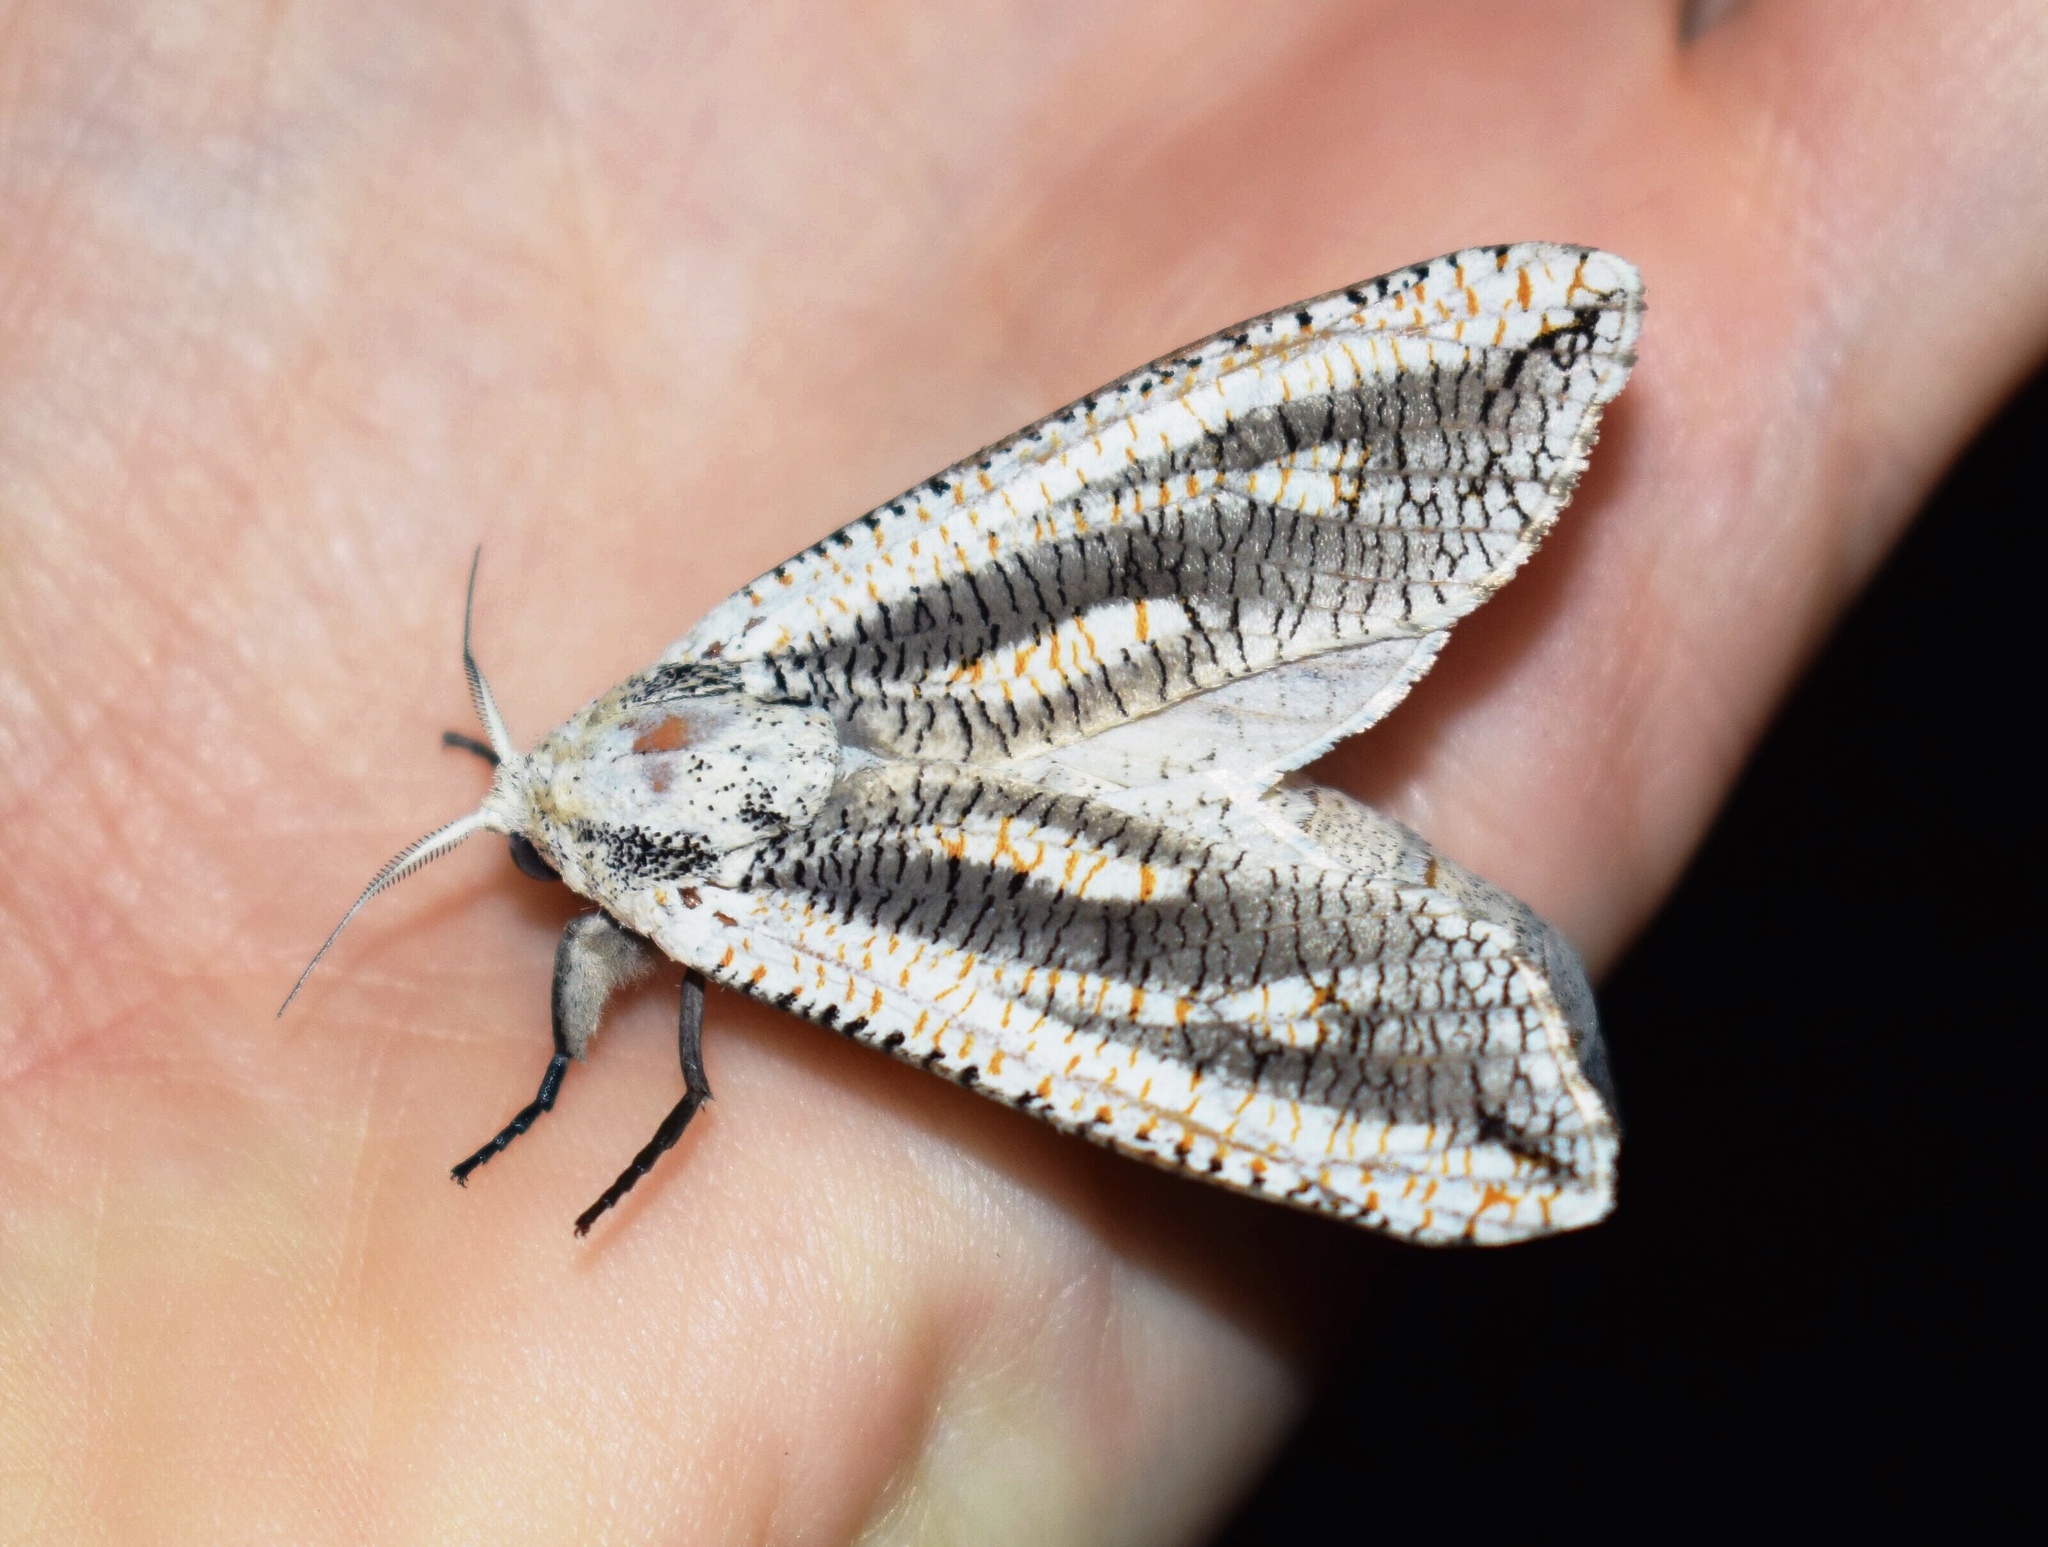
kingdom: Animalia
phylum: Arthropoda
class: Insecta
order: Lepidoptera
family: Cossidae
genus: Azygophleps
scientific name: Azygophleps inclusa
